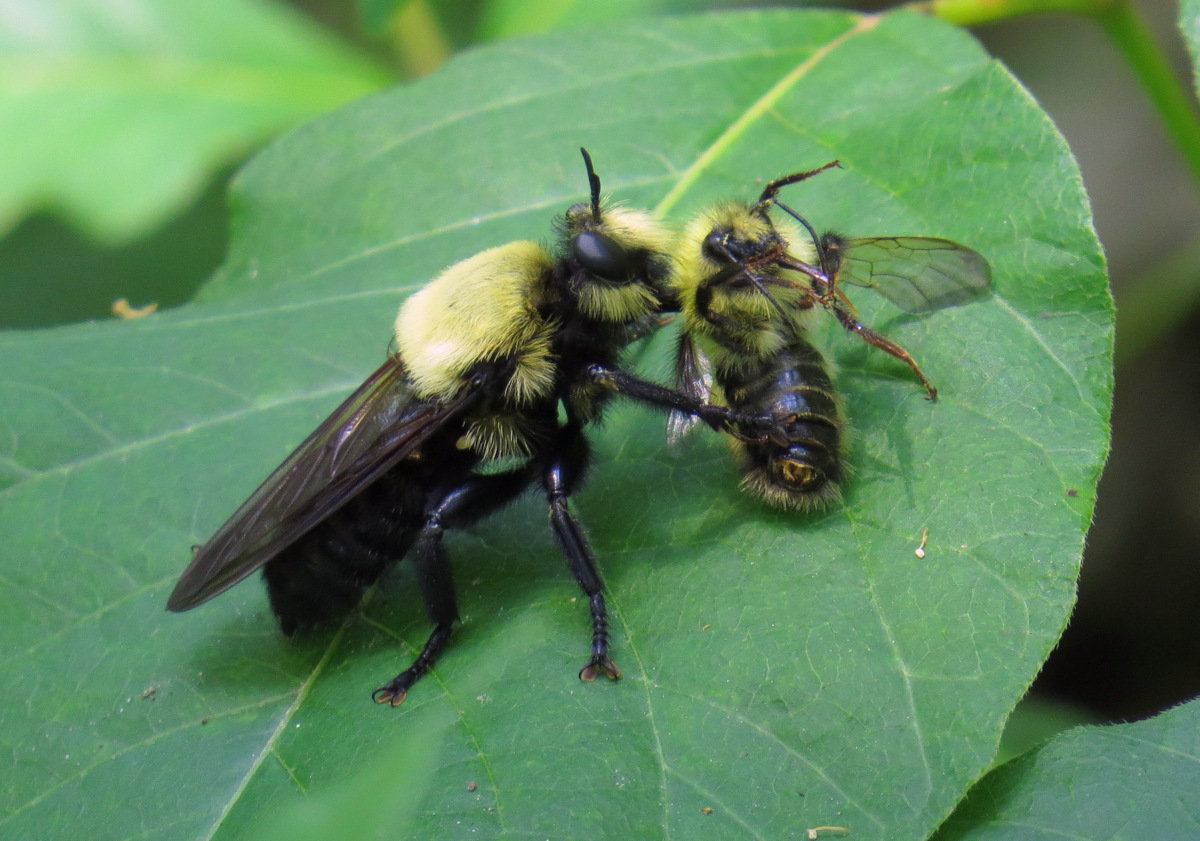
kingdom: Animalia
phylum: Arthropoda
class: Insecta
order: Diptera
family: Asilidae
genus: Laphria
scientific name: Laphria grossa
